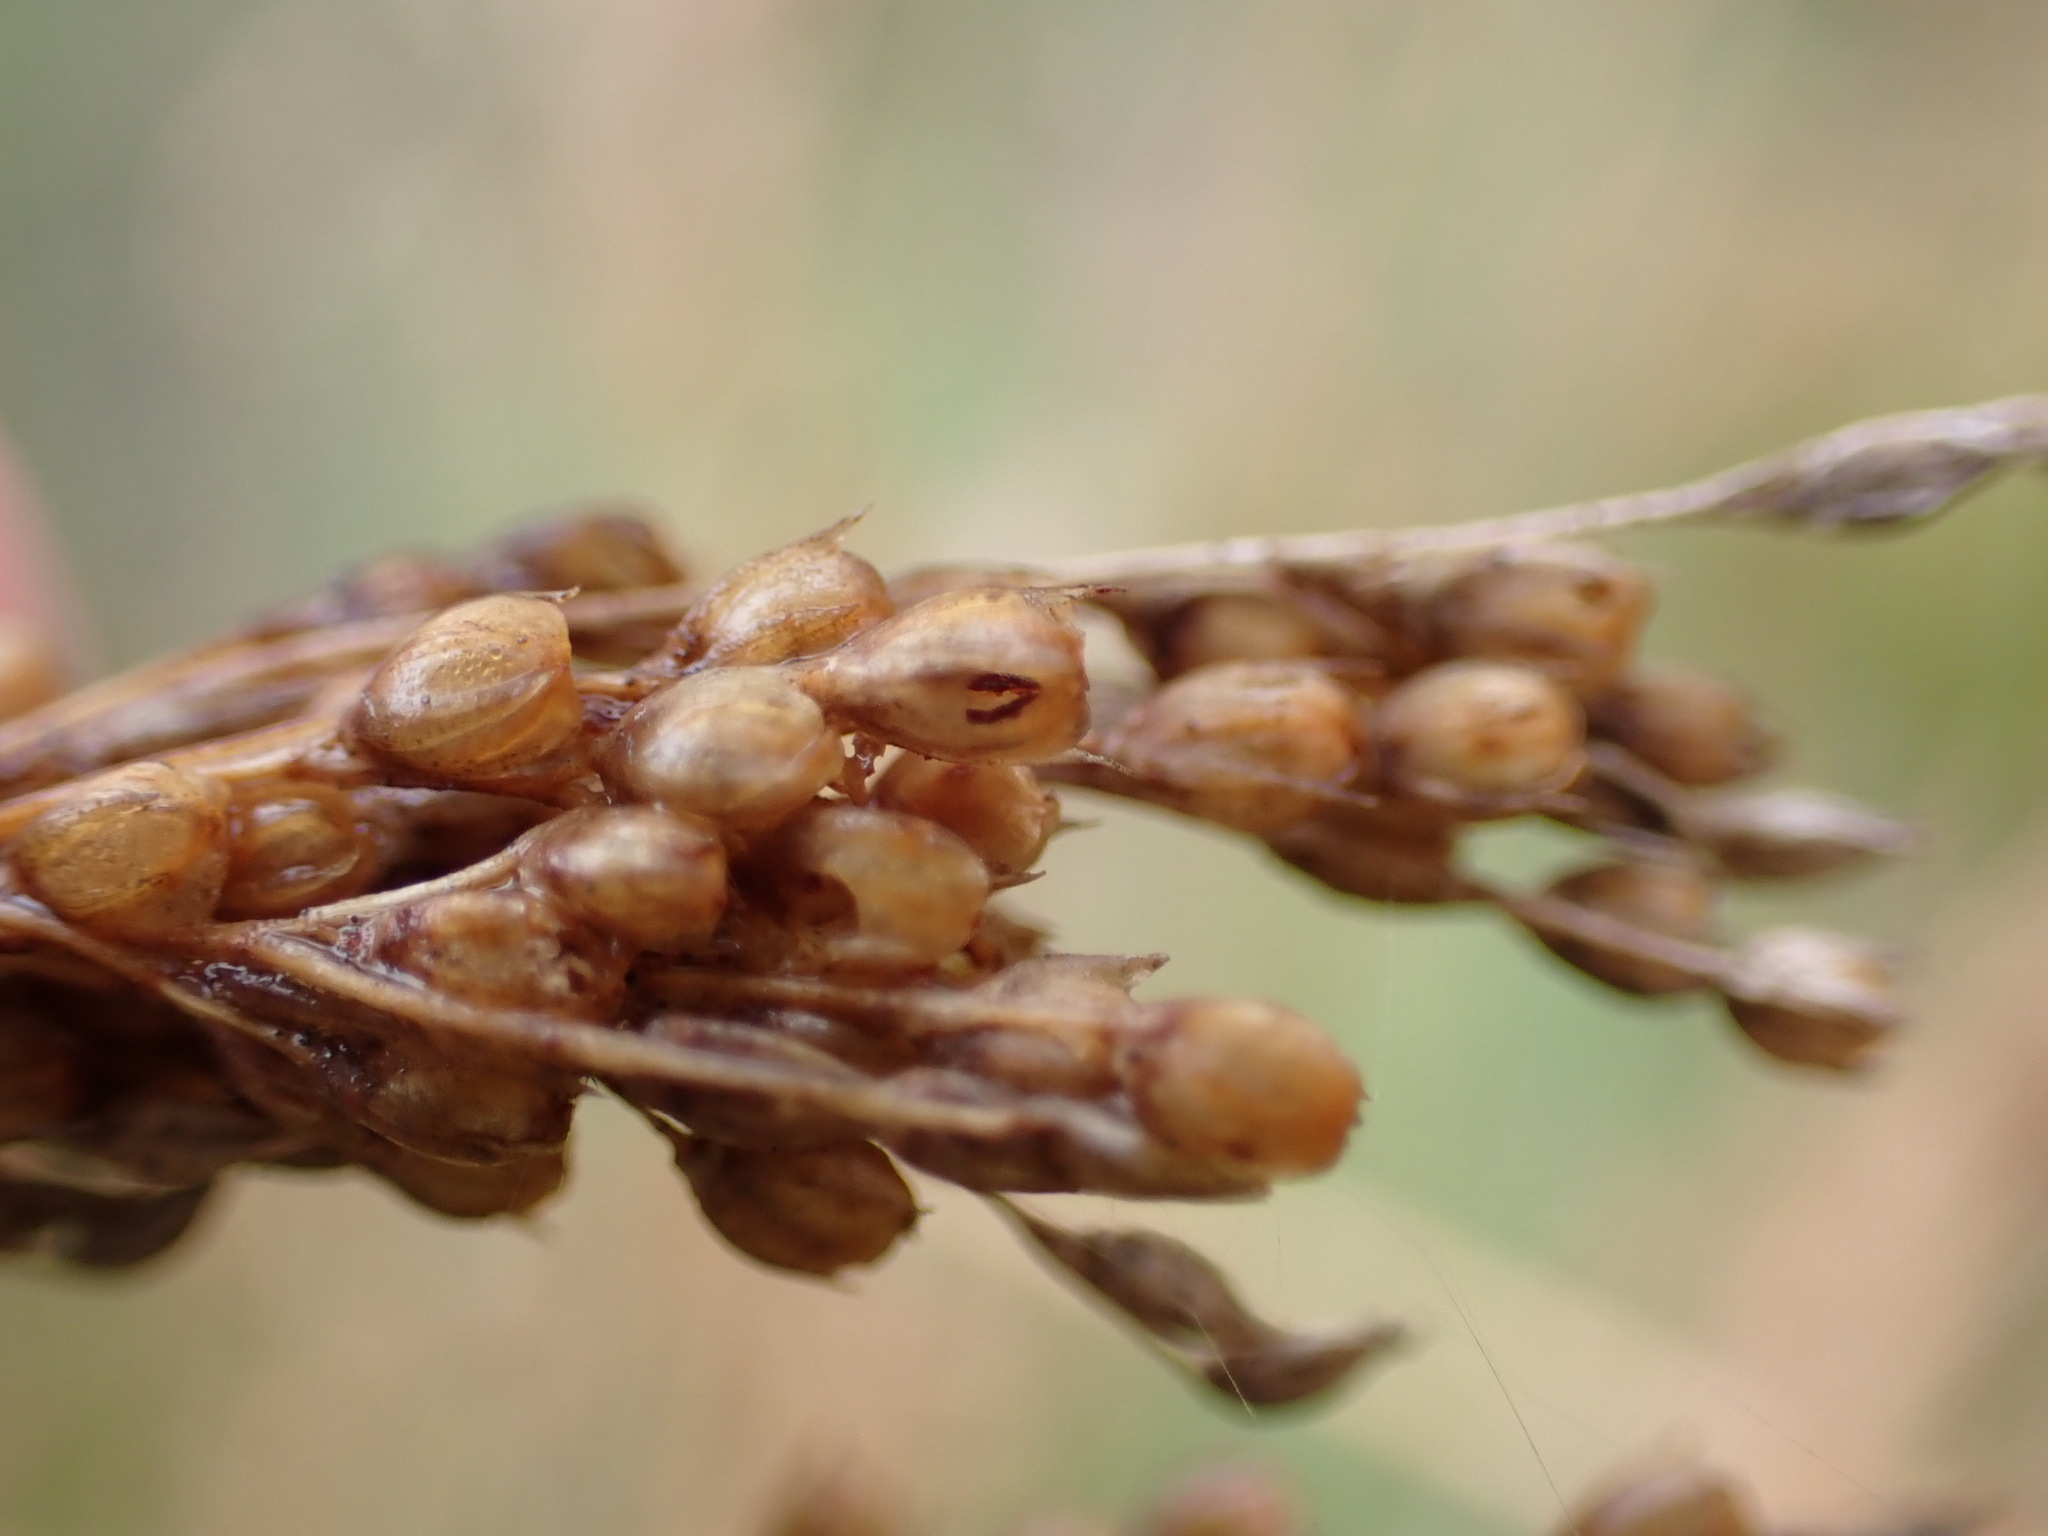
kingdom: Plantae
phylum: Tracheophyta
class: Liliopsida
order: Poales
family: Juncaceae
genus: Juncus
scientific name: Juncus sarophorus
